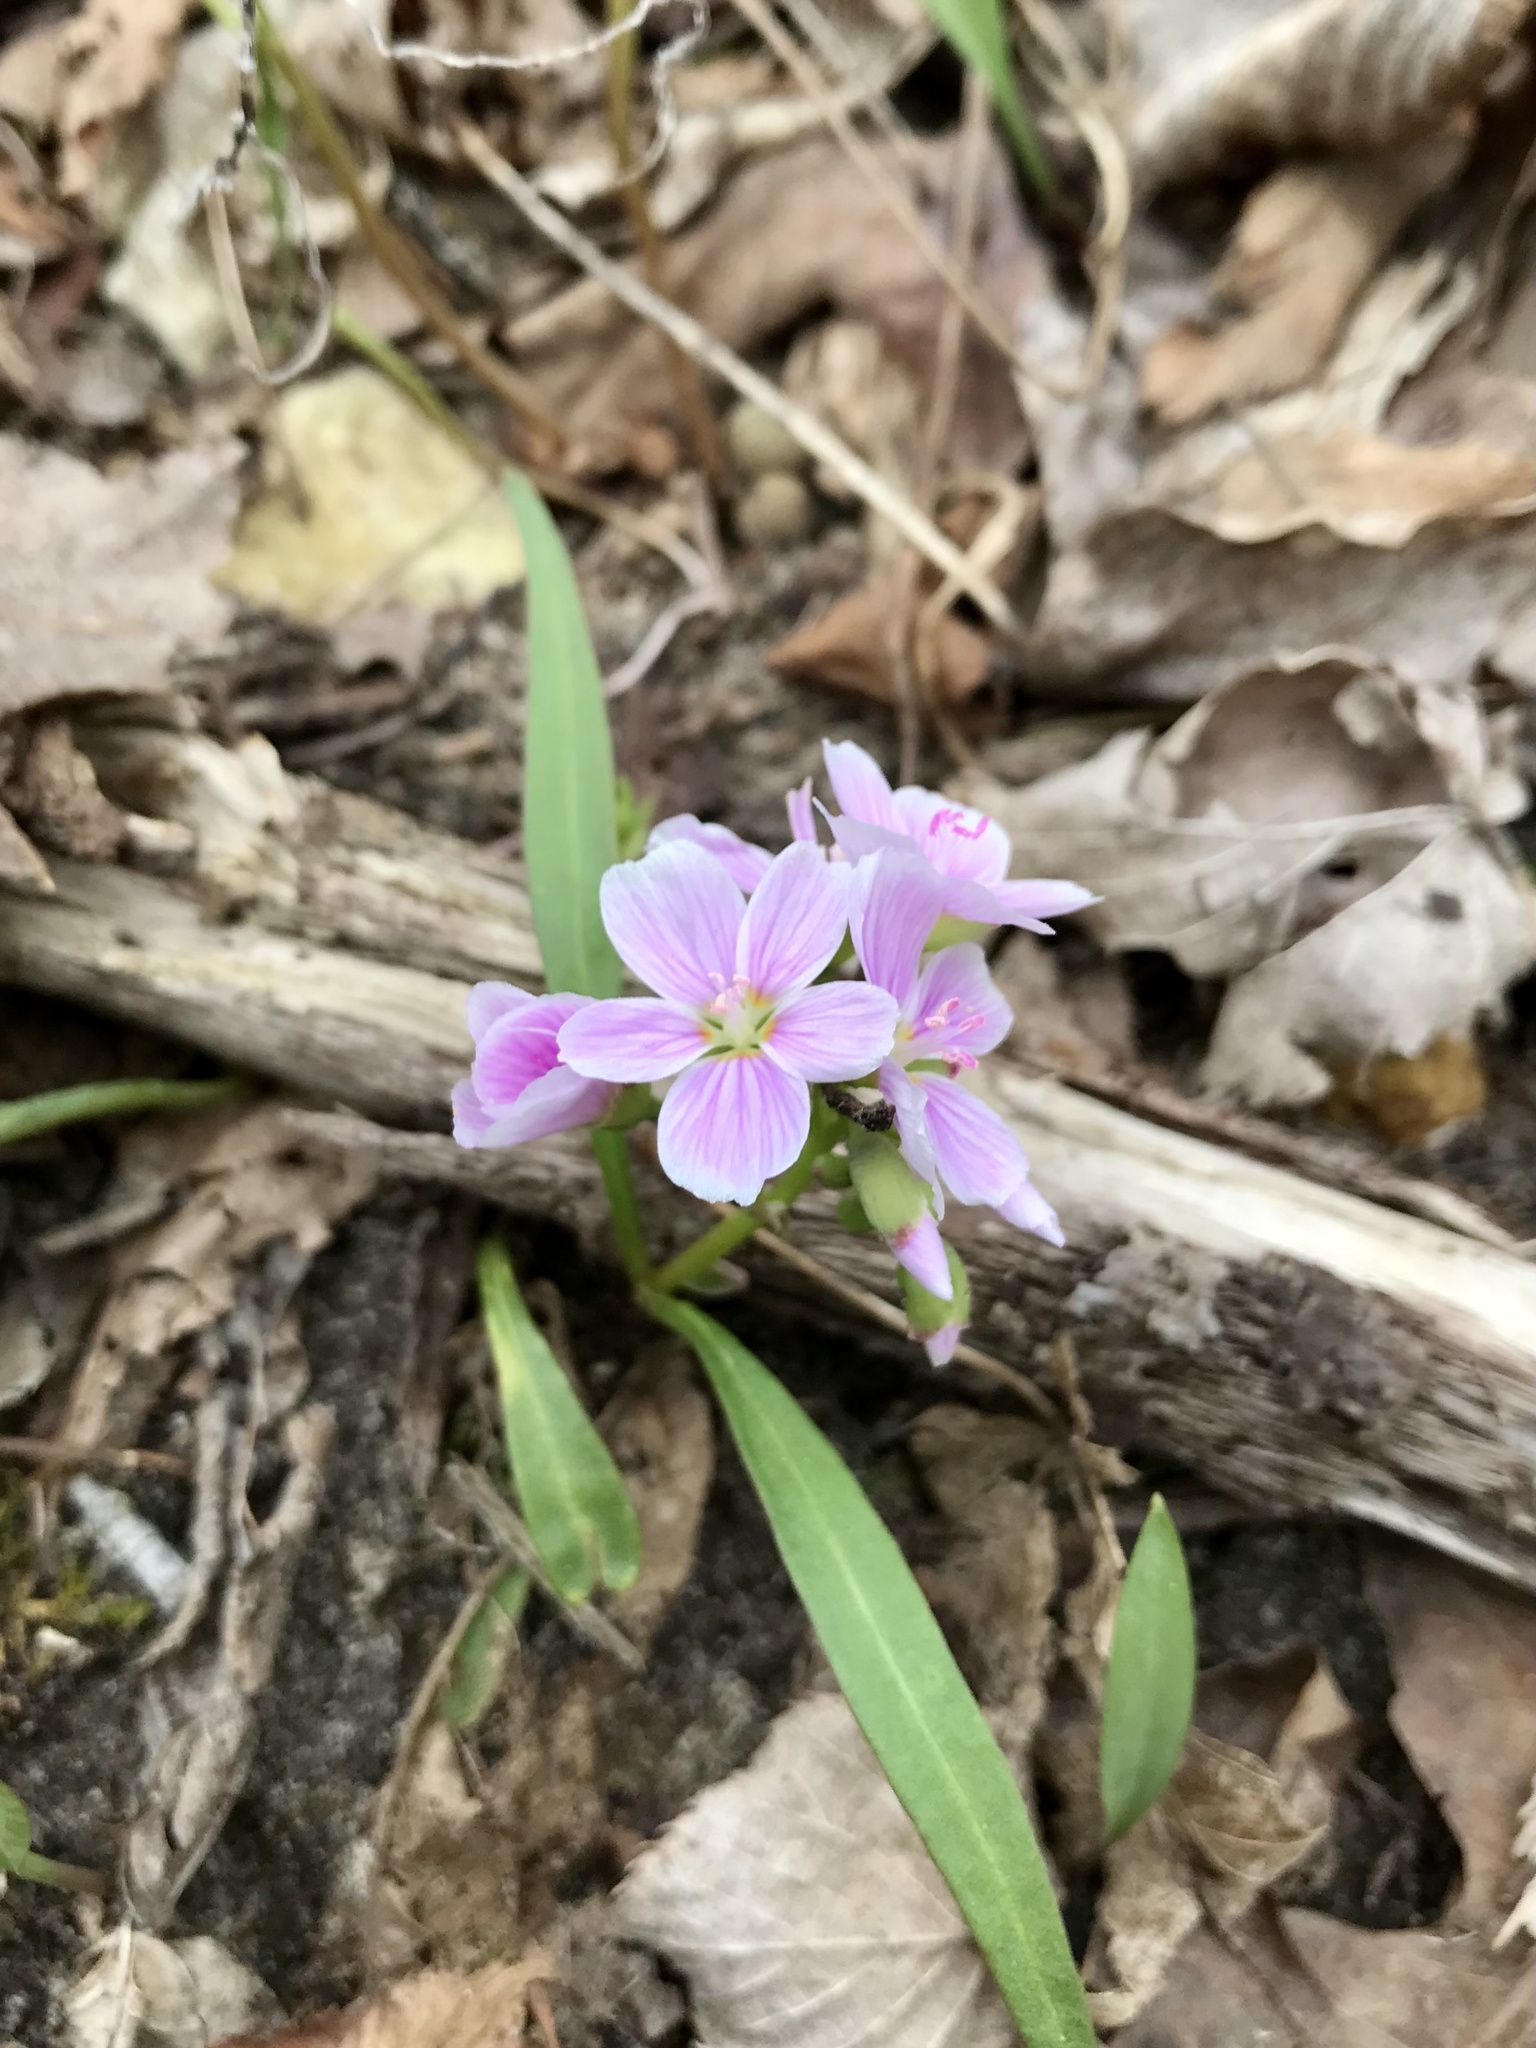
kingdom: Plantae
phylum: Tracheophyta
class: Magnoliopsida
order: Caryophyllales
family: Montiaceae
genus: Claytonia
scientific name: Claytonia virginica
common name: Virginia springbeauty
